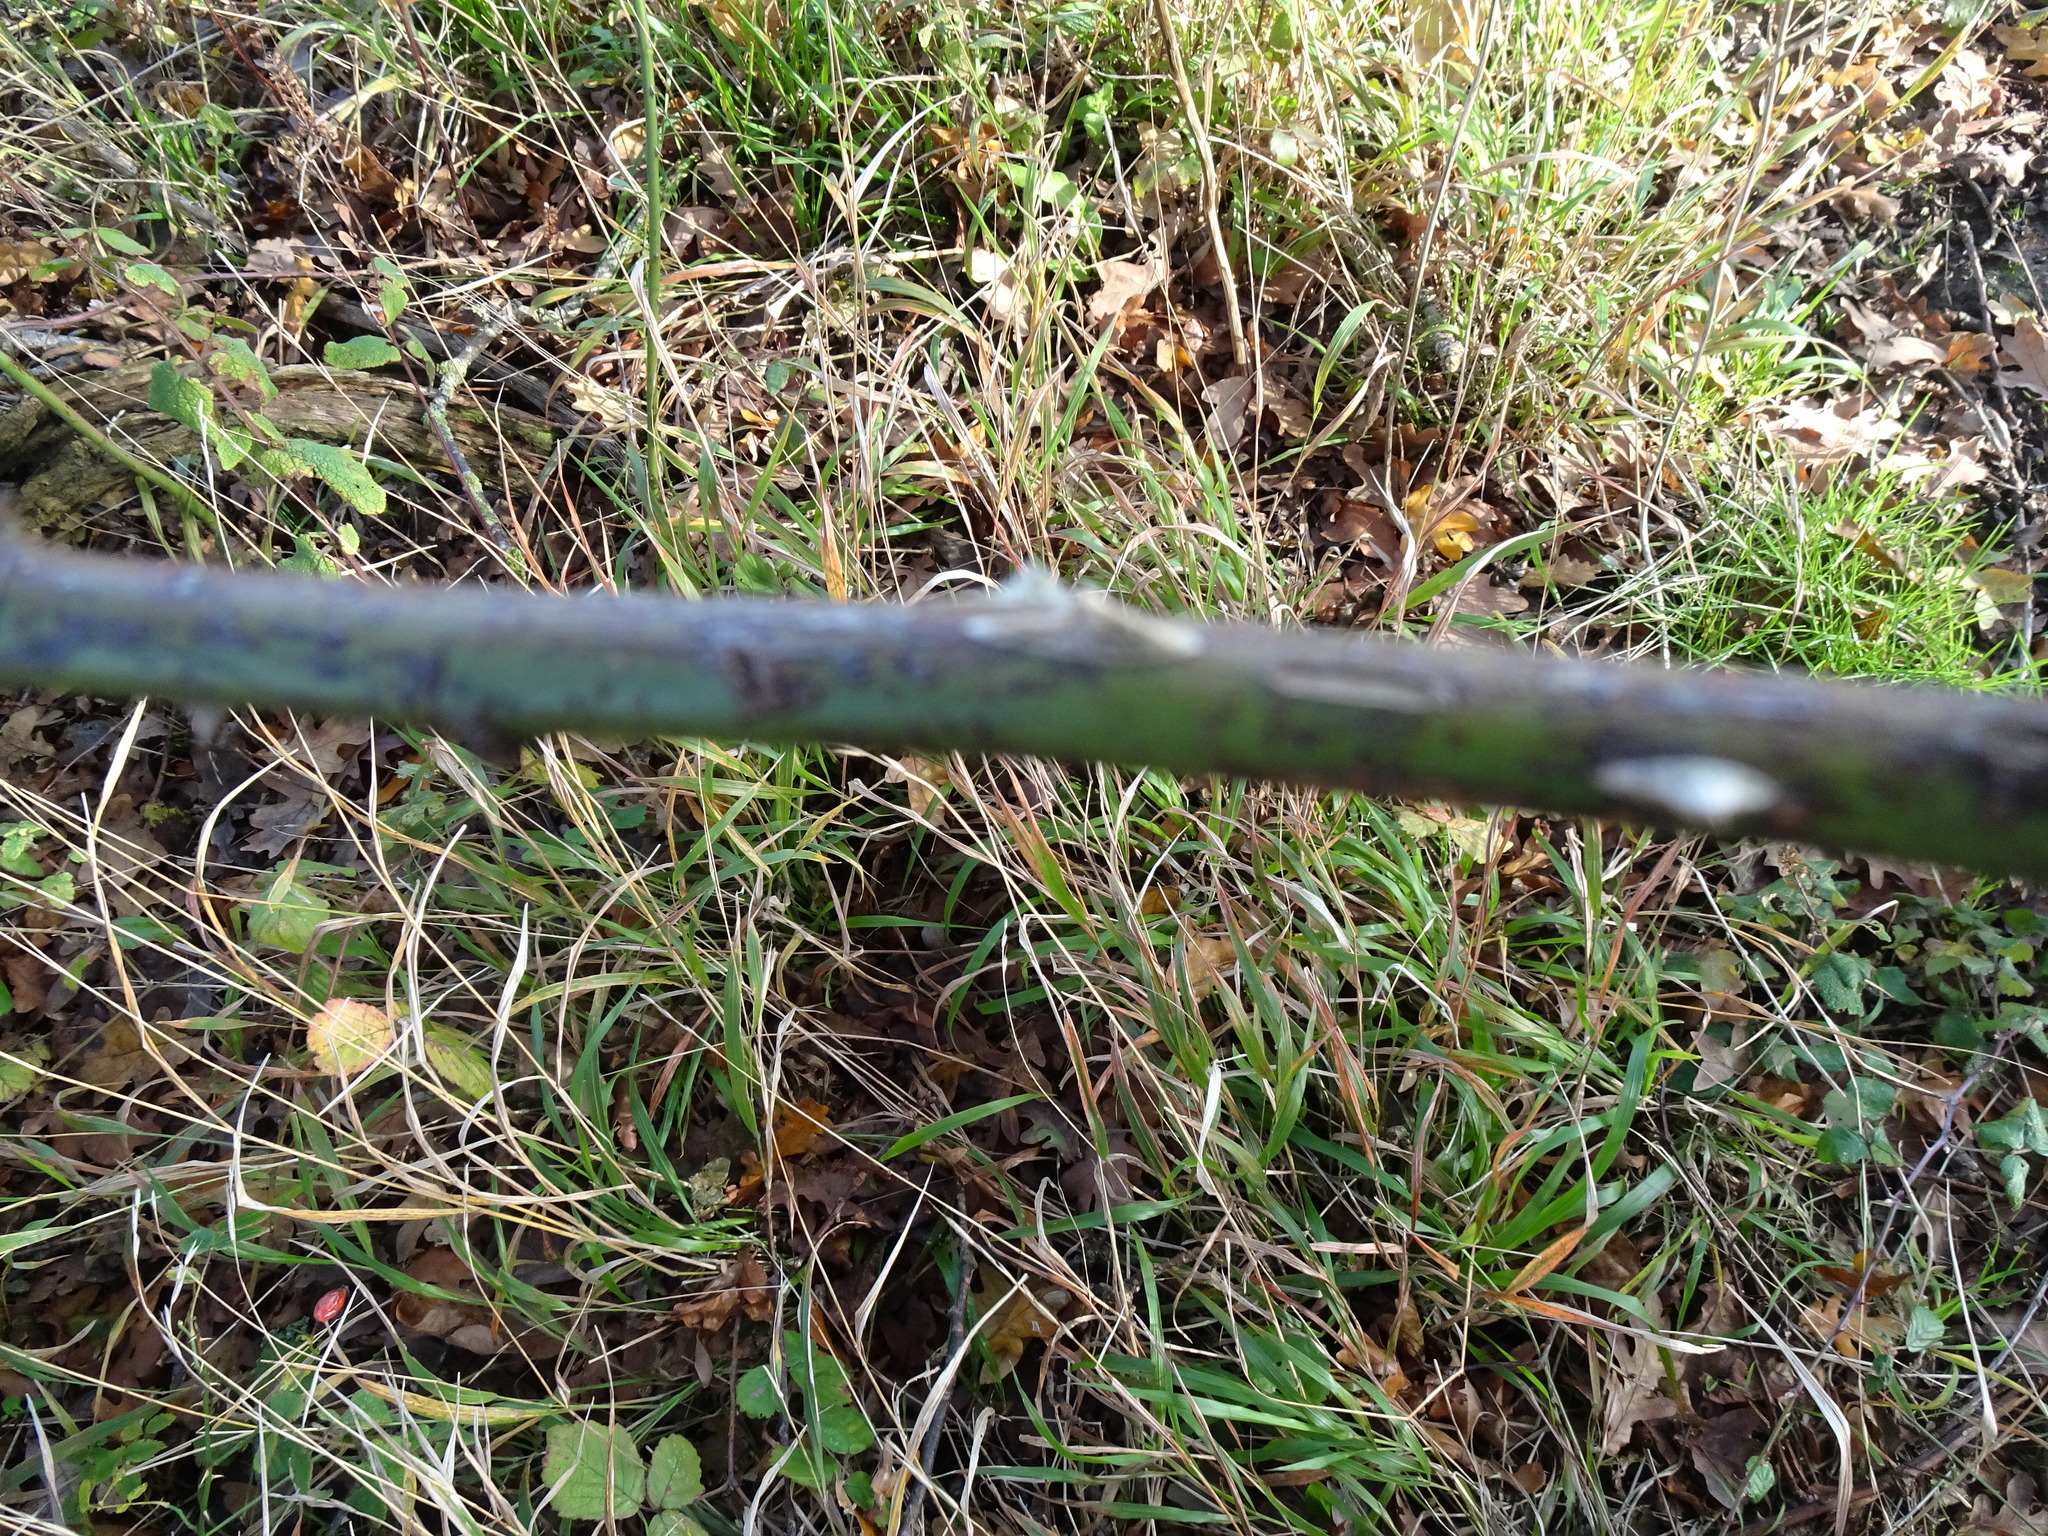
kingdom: Plantae
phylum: Tracheophyta
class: Magnoliopsida
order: Rosales
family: Rosaceae
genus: Rosa
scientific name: Rosa canina
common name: Dog rose
